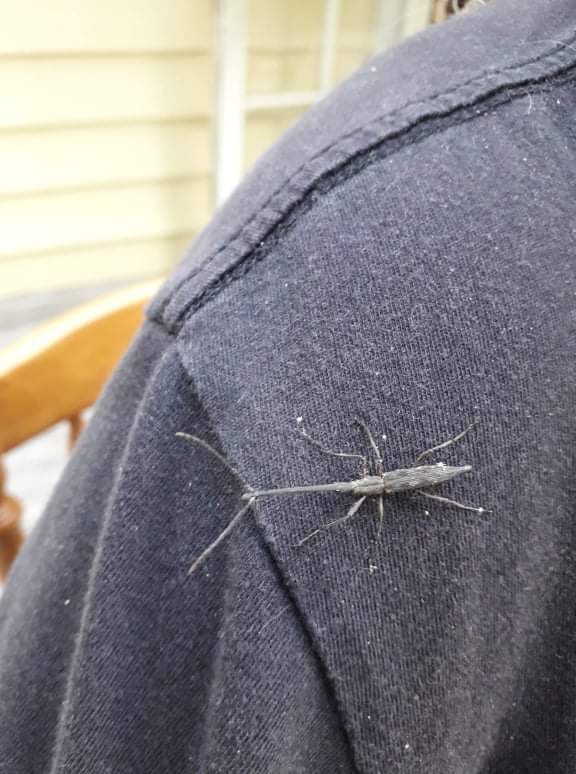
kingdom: Animalia
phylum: Arthropoda
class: Insecta
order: Coleoptera
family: Brentidae
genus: Lasiorhynchus
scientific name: Lasiorhynchus barbicornis
